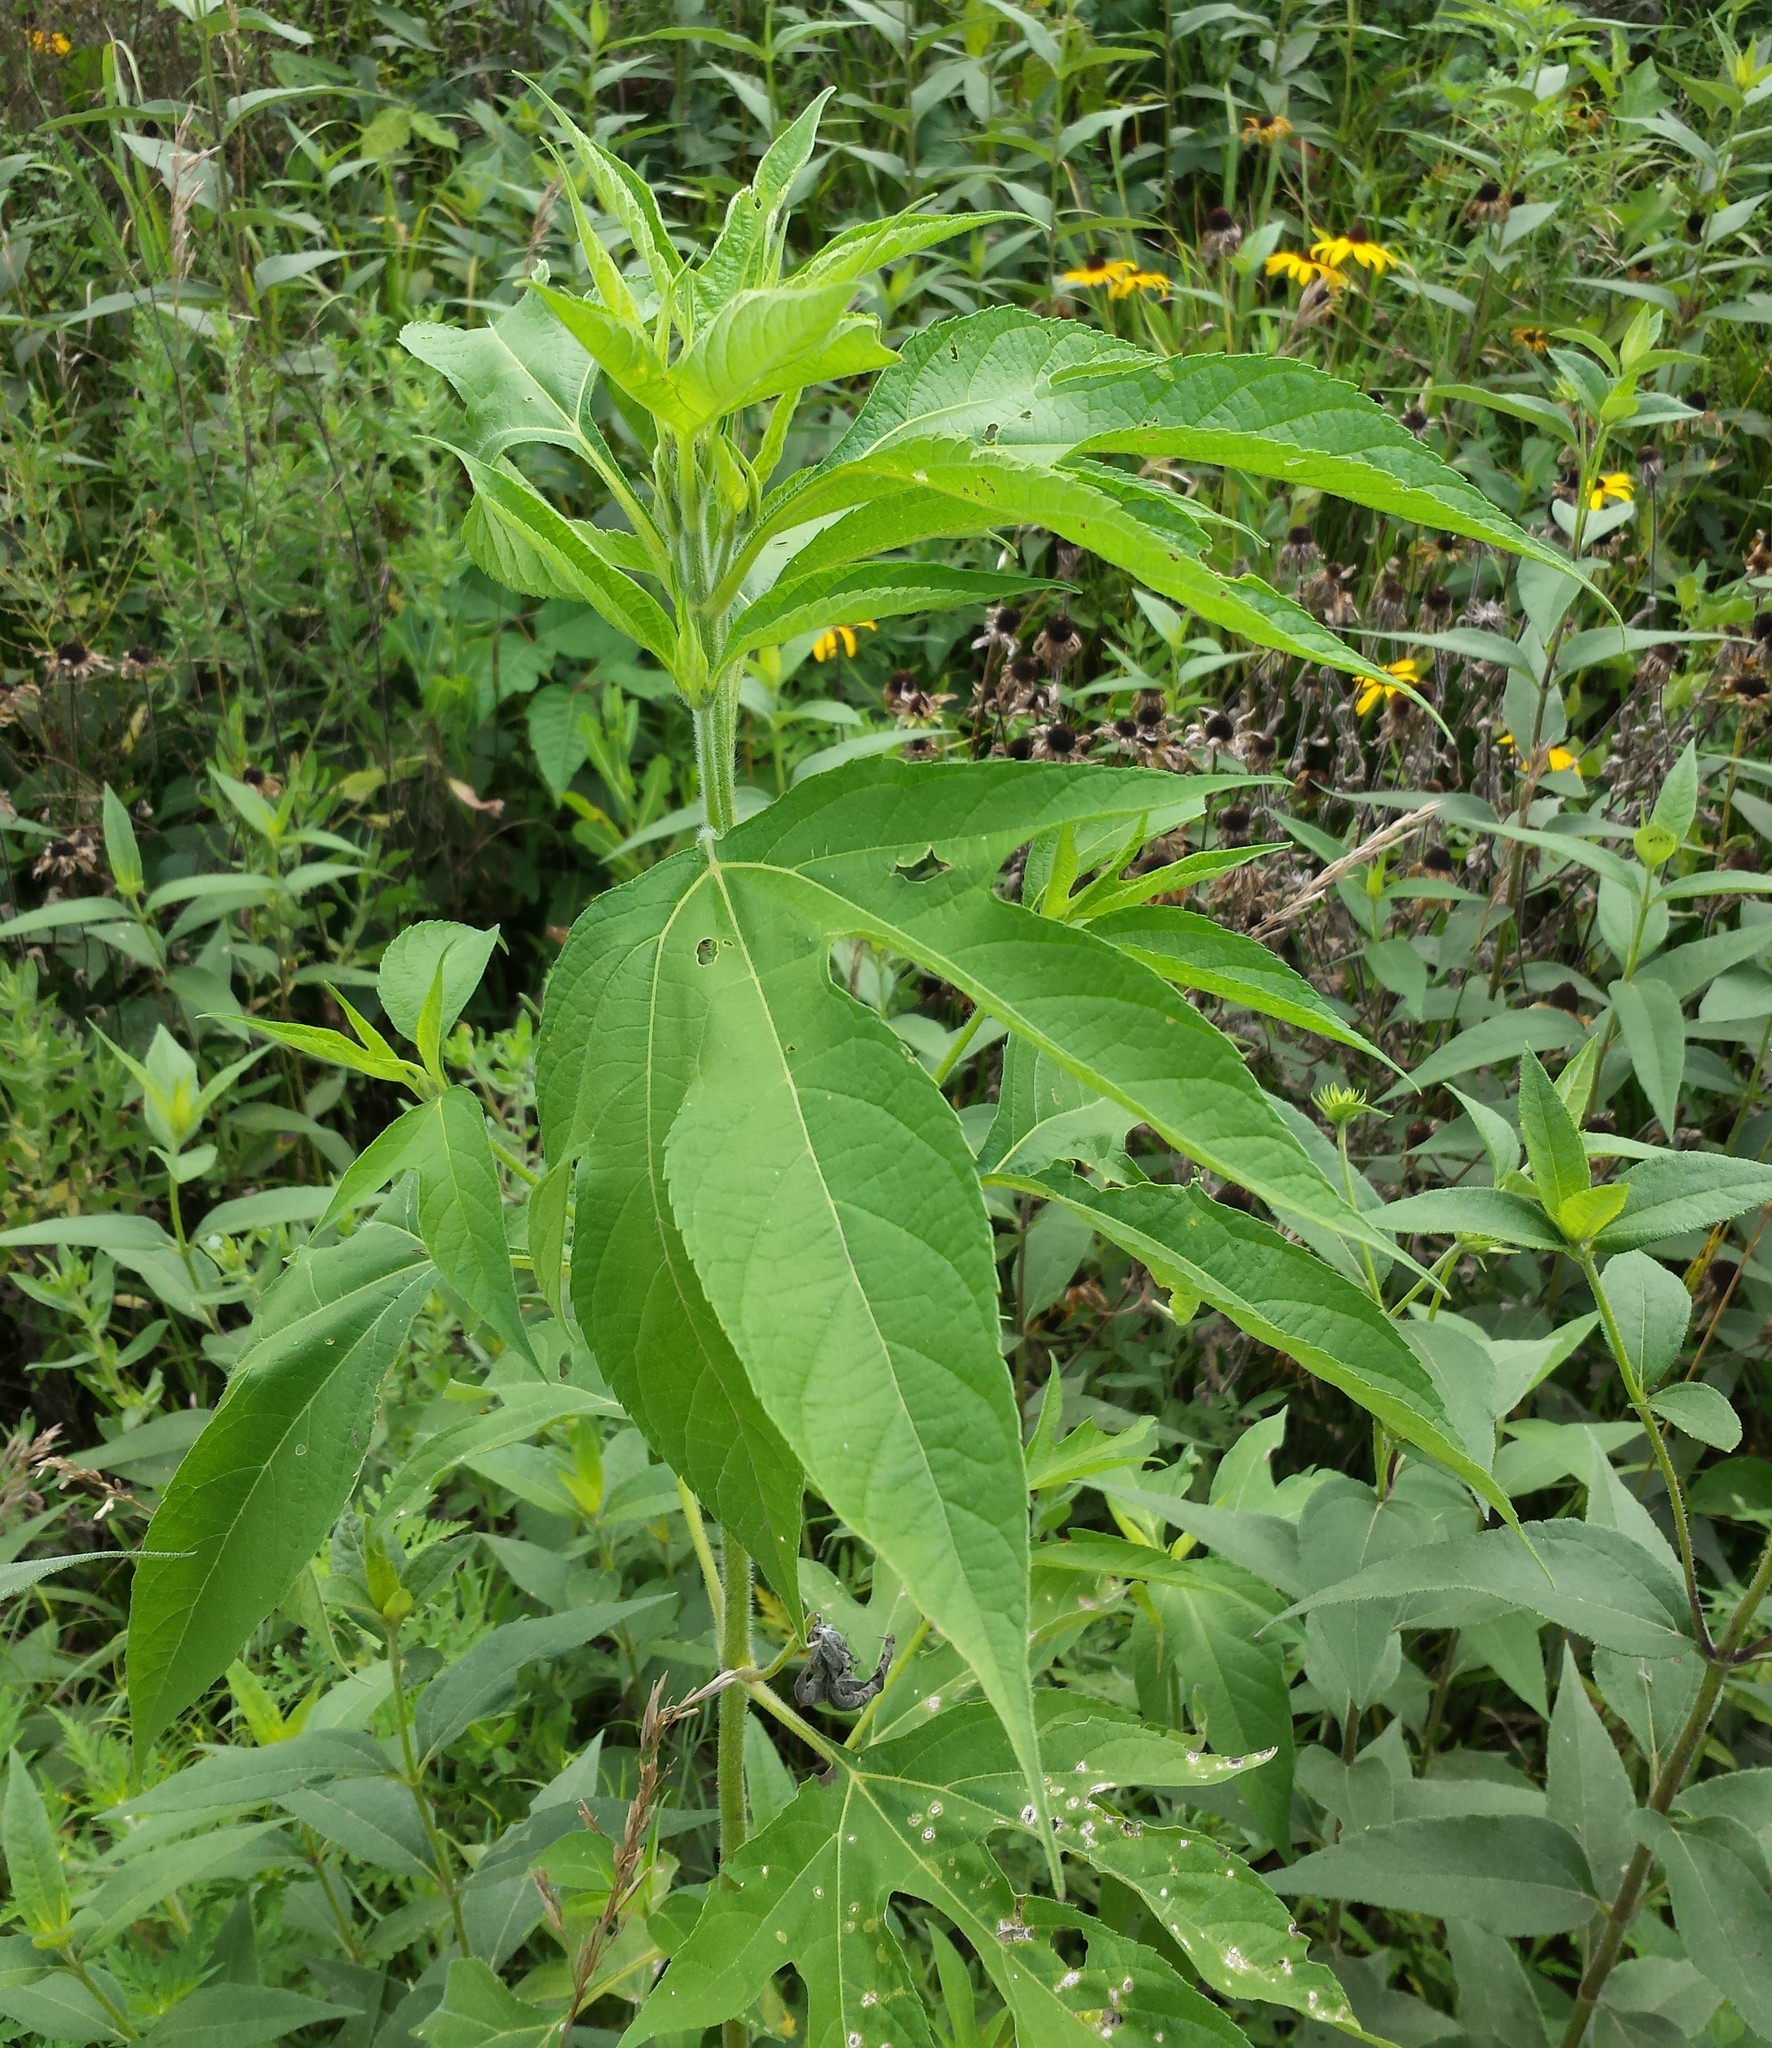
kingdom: Plantae
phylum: Tracheophyta
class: Magnoliopsida
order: Asterales
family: Asteraceae
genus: Ambrosia
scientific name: Ambrosia trifida
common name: Giant ragweed
